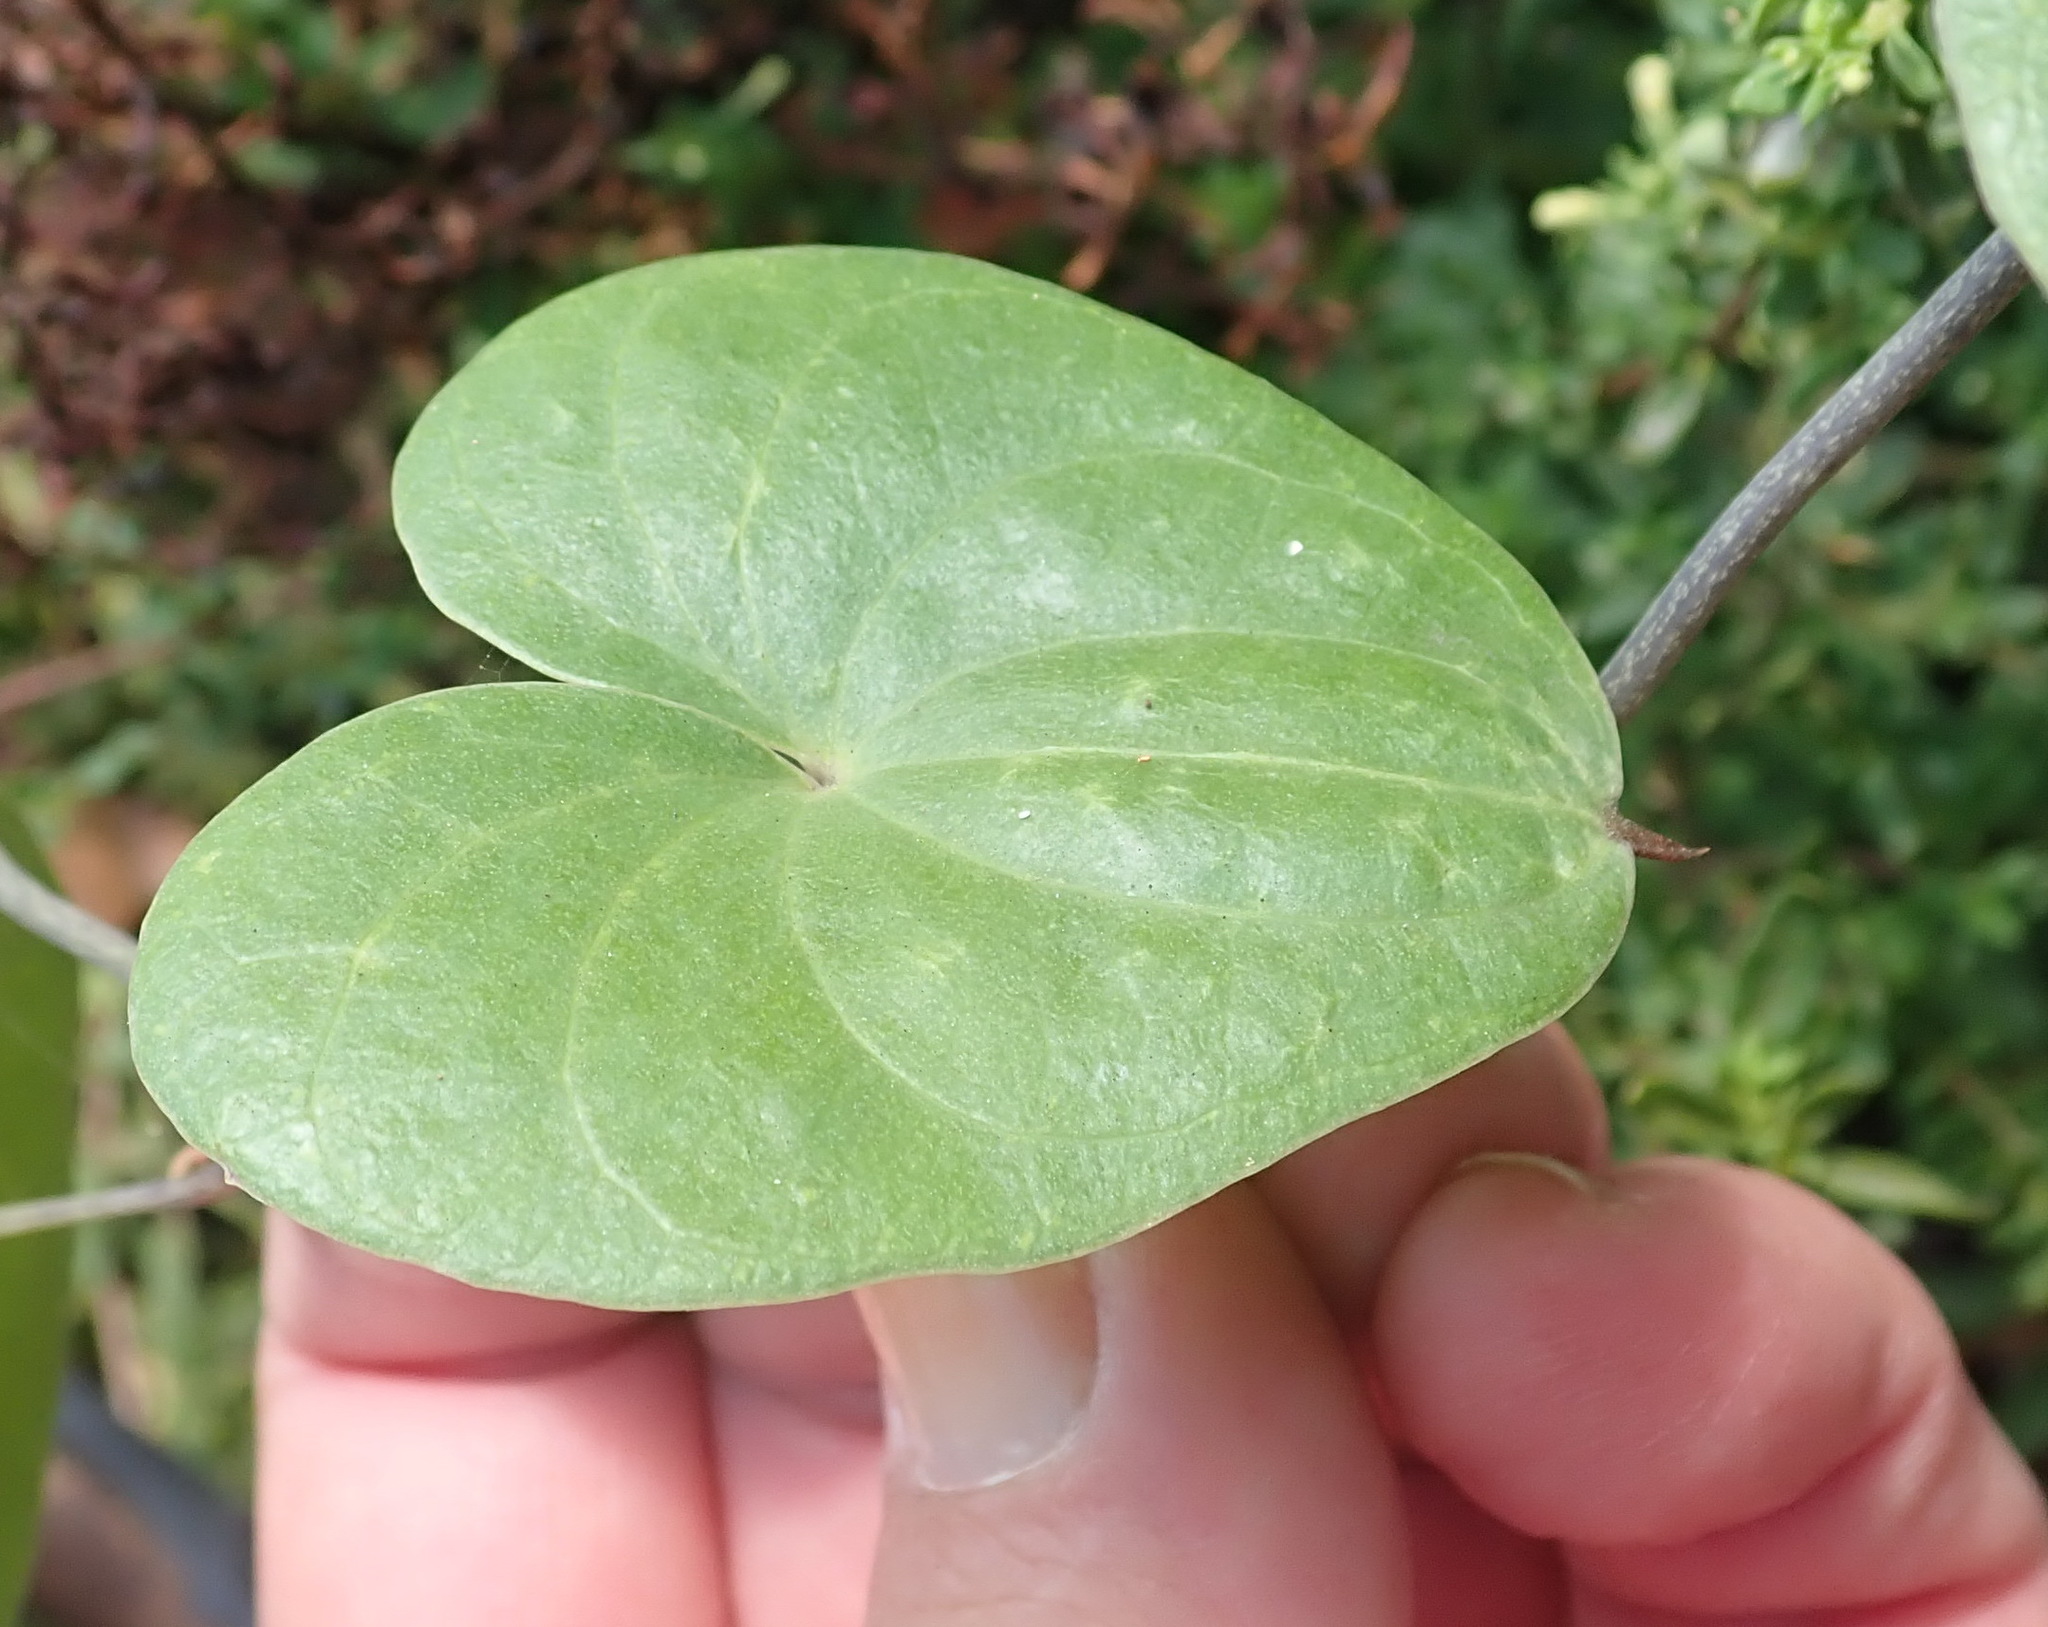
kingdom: Plantae
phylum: Tracheophyta
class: Liliopsida
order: Dioscoreales
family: Dioscoreaceae
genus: Dioscorea
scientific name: Dioscorea sylvatica
